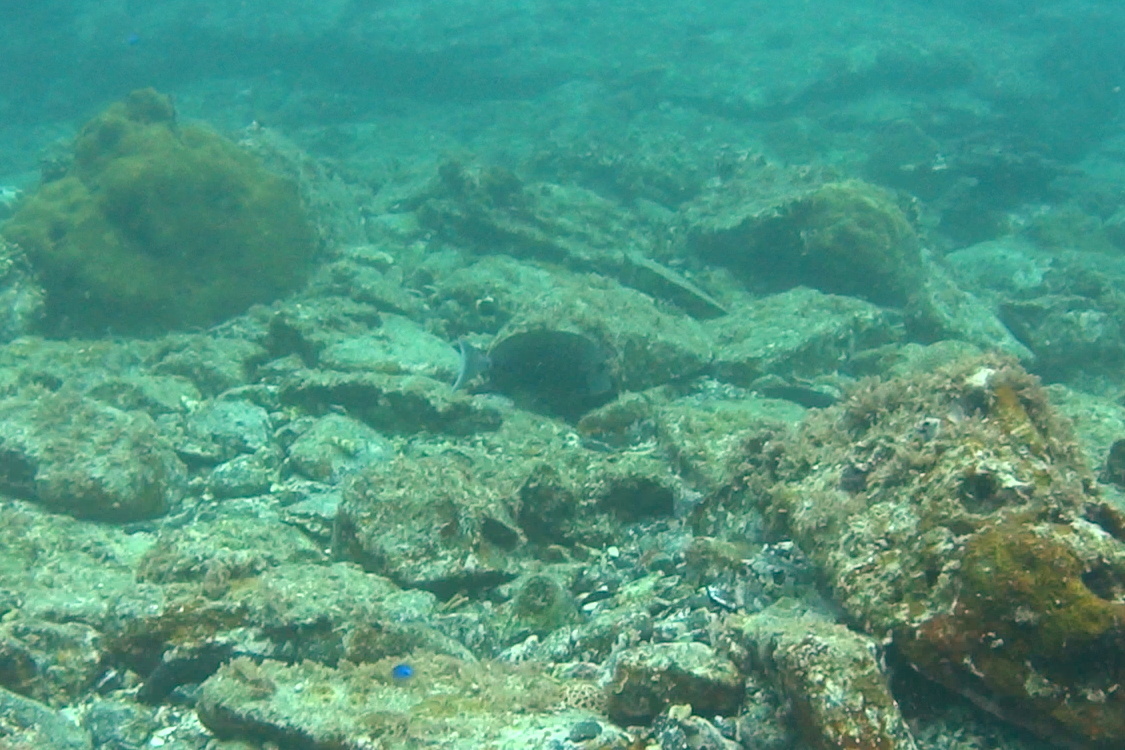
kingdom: Animalia
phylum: Chordata
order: Perciformes
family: Acanthuridae
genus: Prionurus
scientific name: Prionurus scalprum
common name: Japanese sawtail
